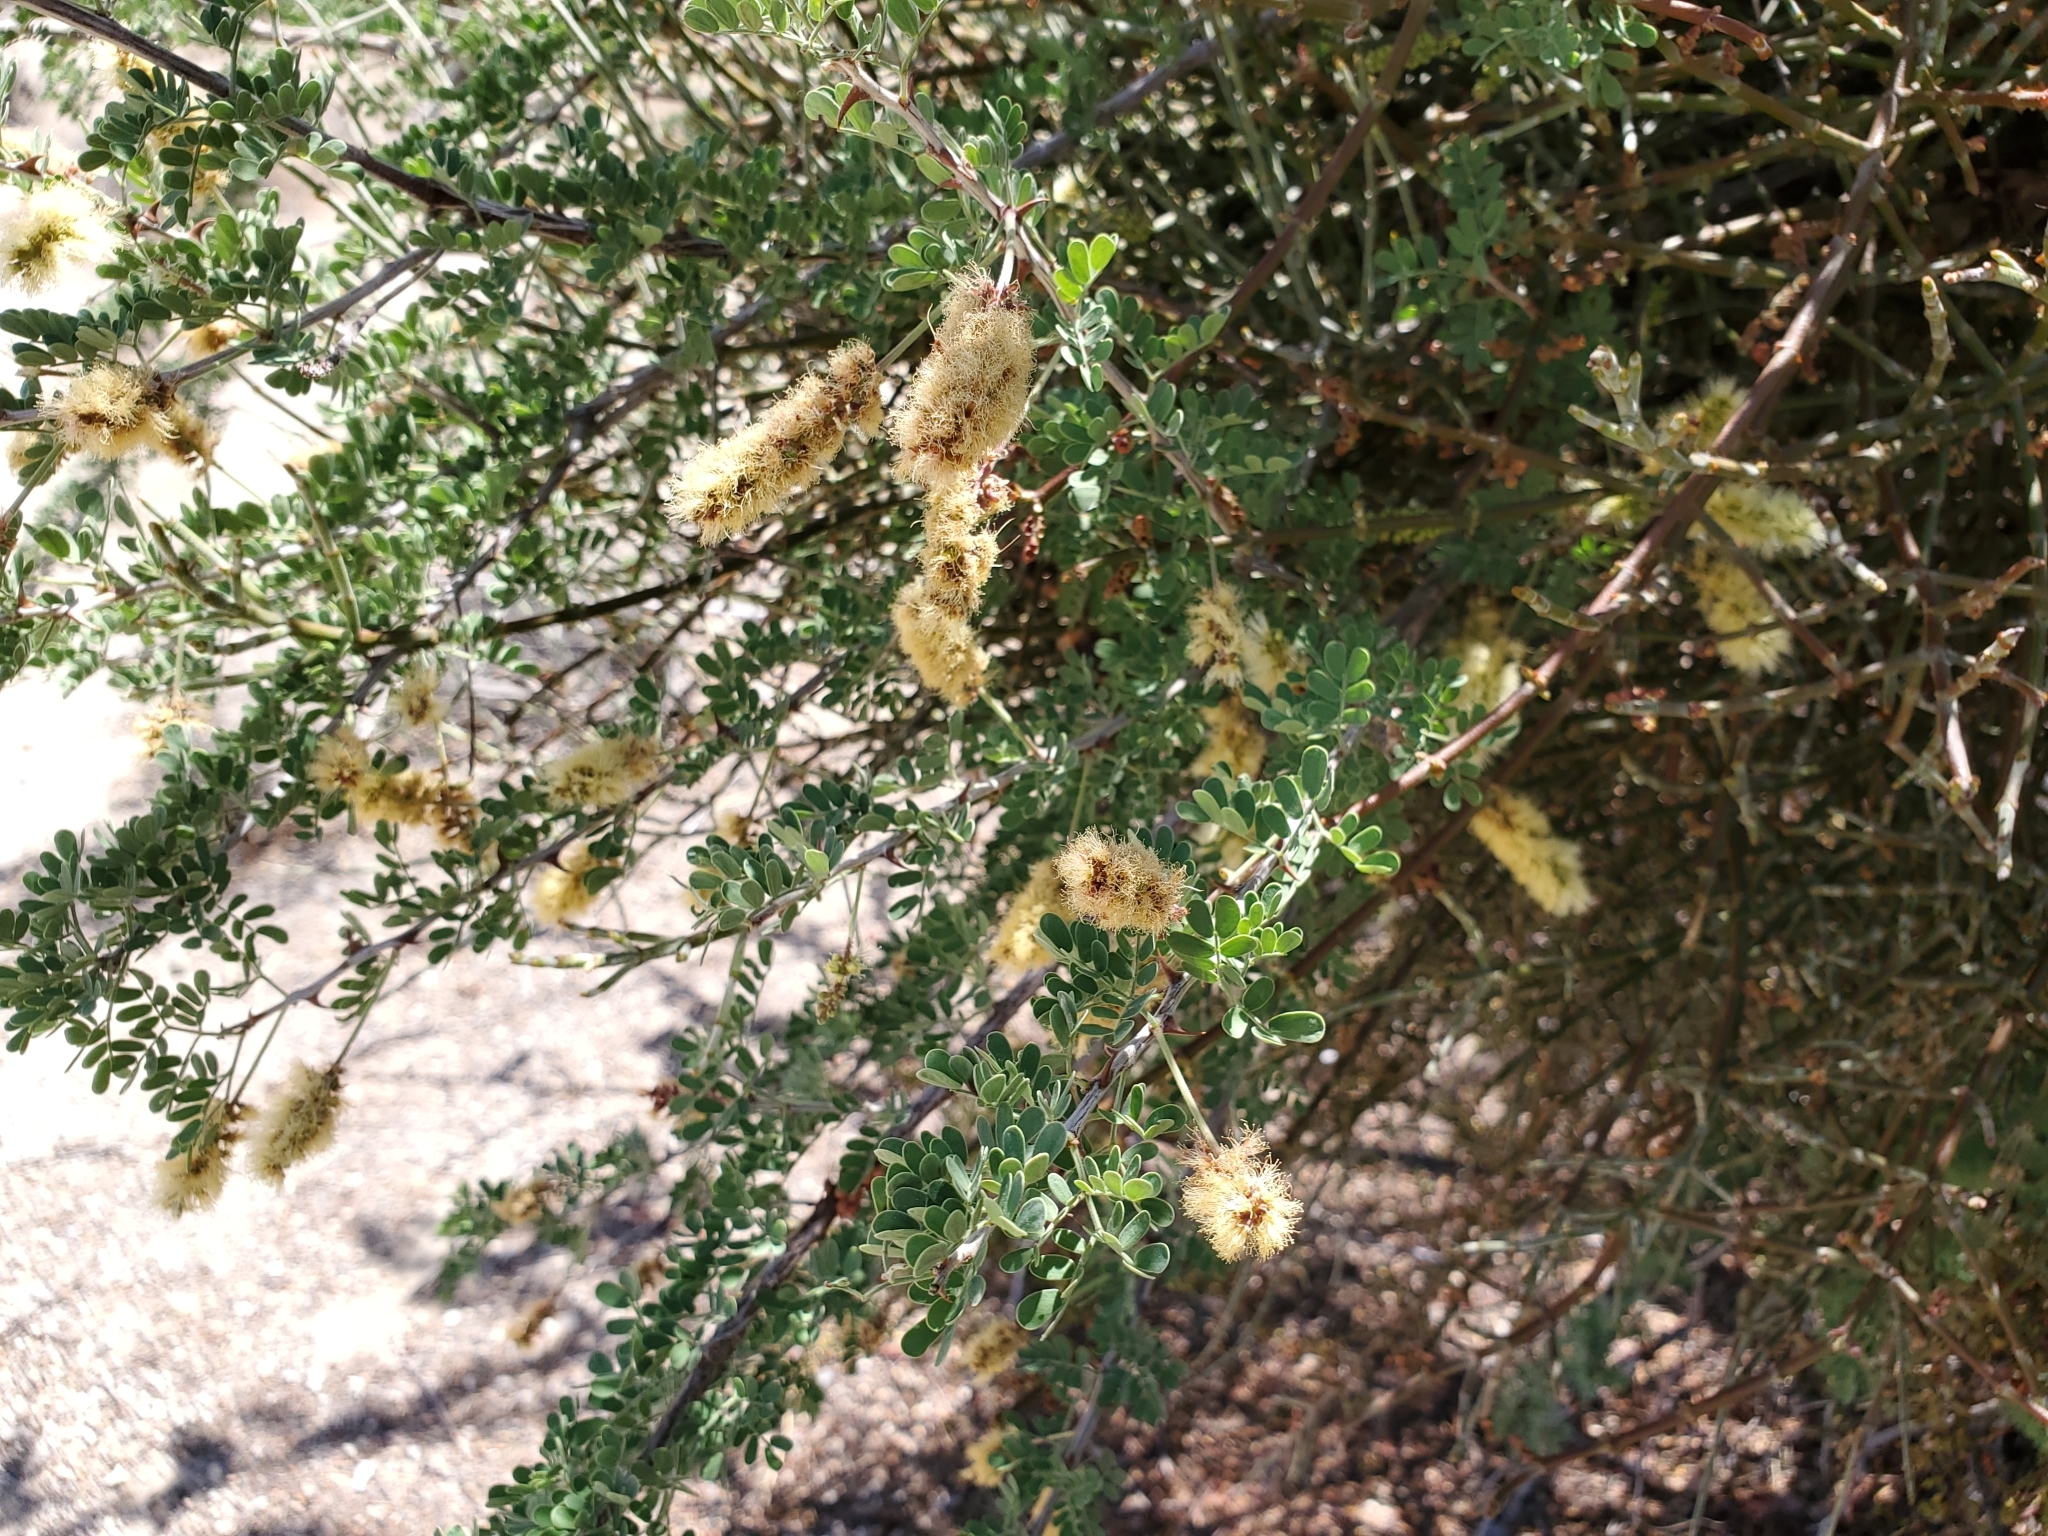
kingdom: Plantae
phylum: Tracheophyta
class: Magnoliopsida
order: Fabales
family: Fabaceae
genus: Senegalia
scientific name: Senegalia greggii
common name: Texas-mimosa
